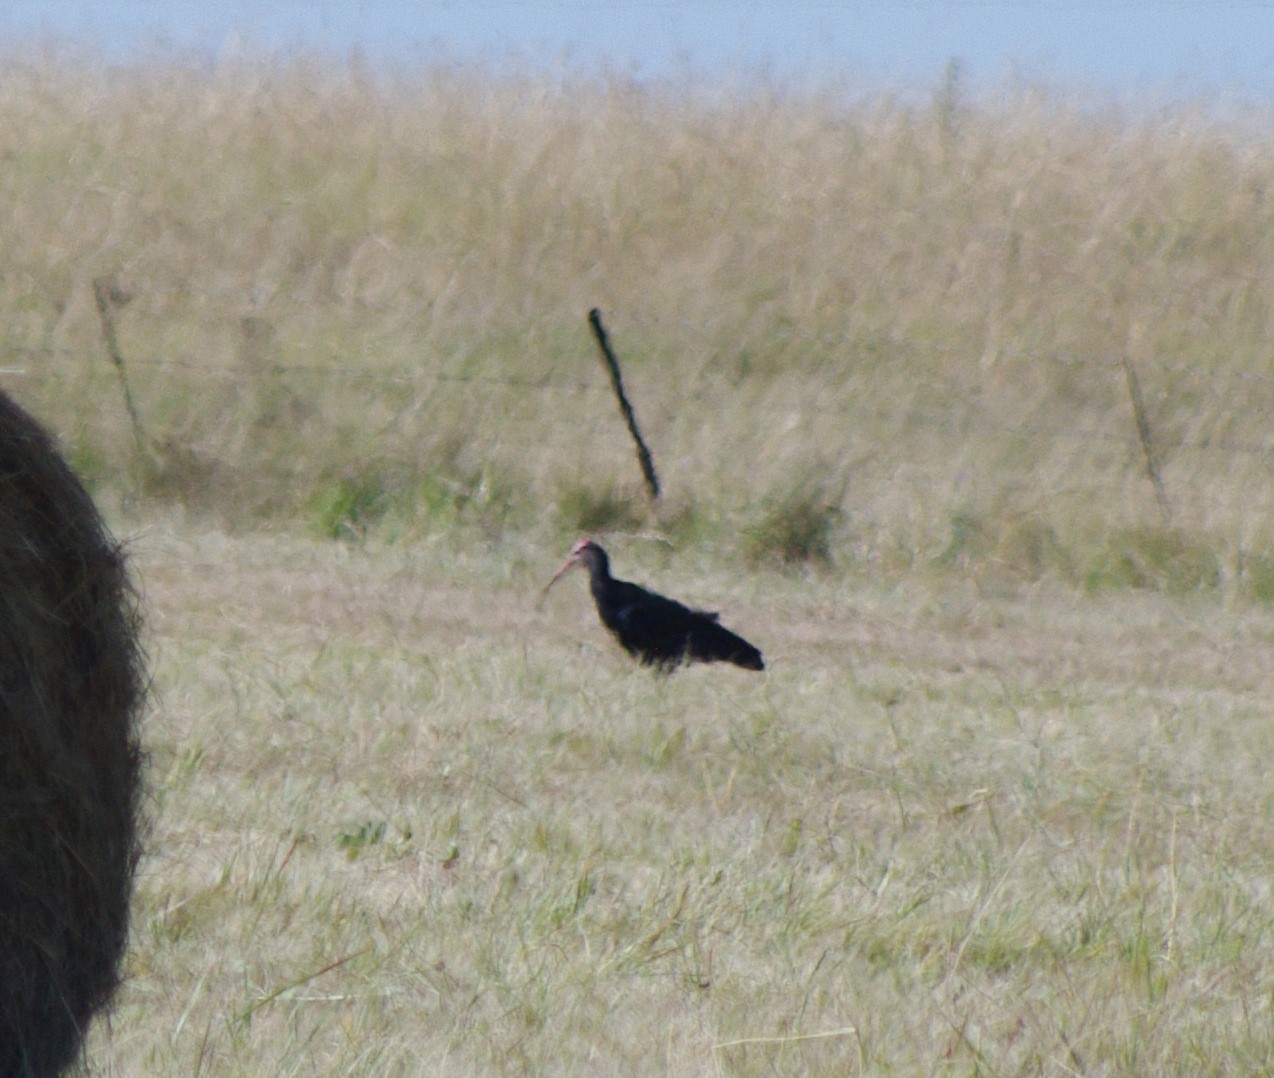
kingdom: Animalia
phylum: Chordata
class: Aves
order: Pelecaniformes
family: Threskiornithidae
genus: Geronticus
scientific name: Geronticus calvus
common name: Southern bald ibis
